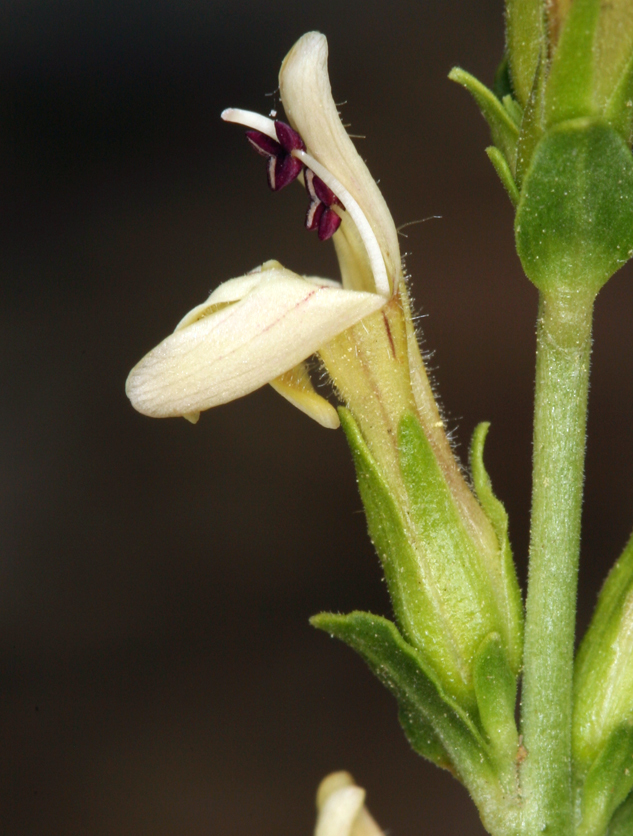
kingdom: Plantae
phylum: Tracheophyta
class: Magnoliopsida
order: Lamiales
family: Plantaginaceae
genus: Keckiella
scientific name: Keckiella rothrockii
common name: Rothrock's keckiella
